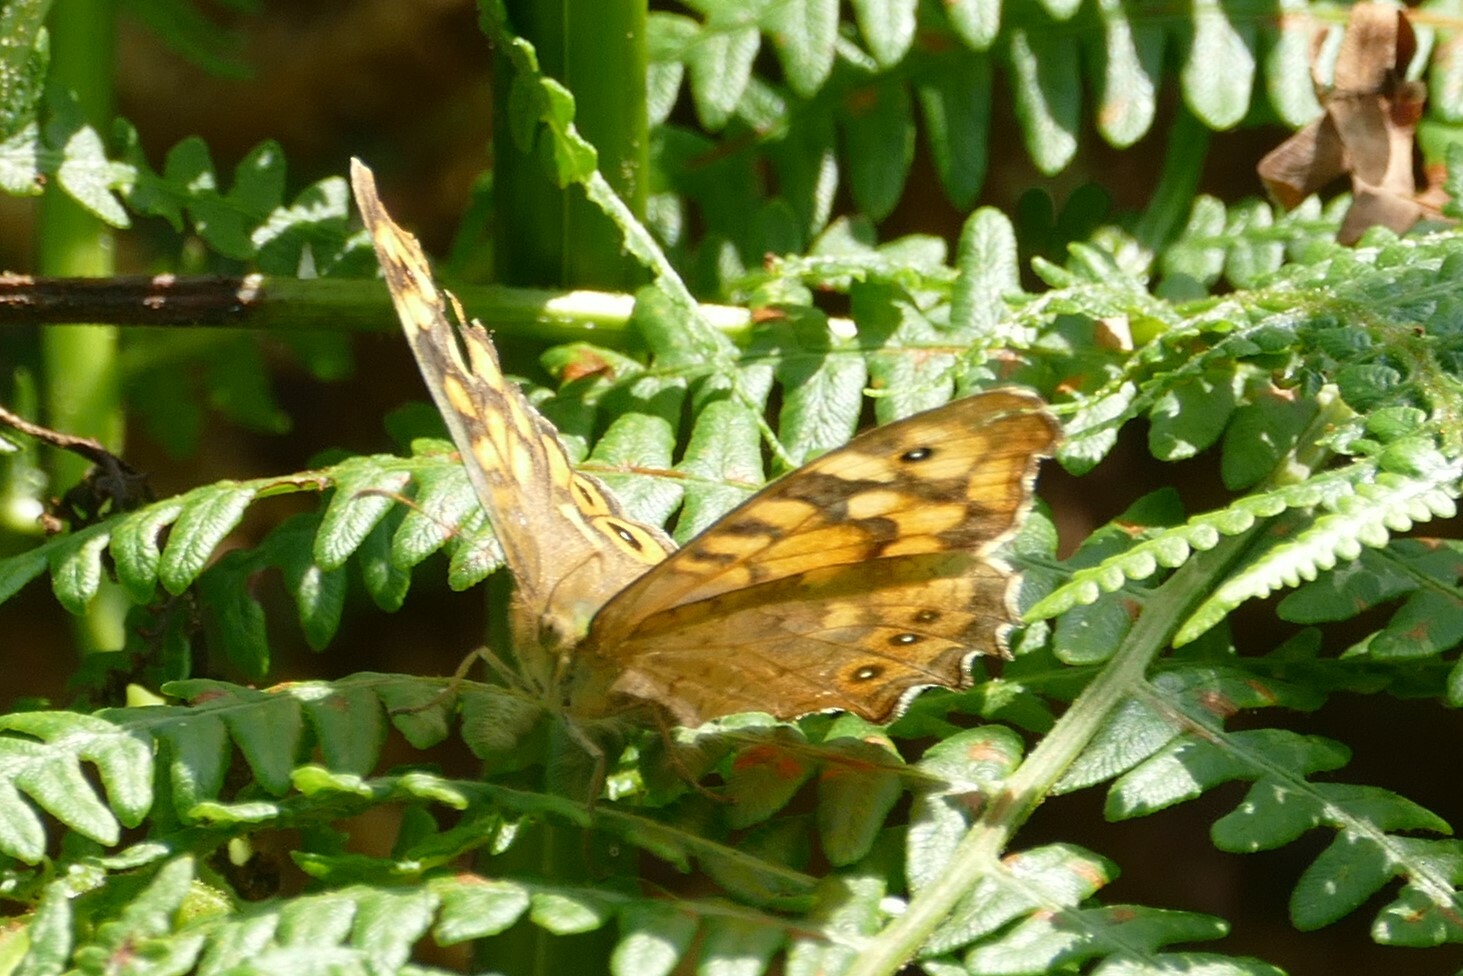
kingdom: Animalia
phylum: Arthropoda
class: Insecta
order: Lepidoptera
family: Nymphalidae
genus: Pararge
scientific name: Pararge aegeria
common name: Speckled wood
